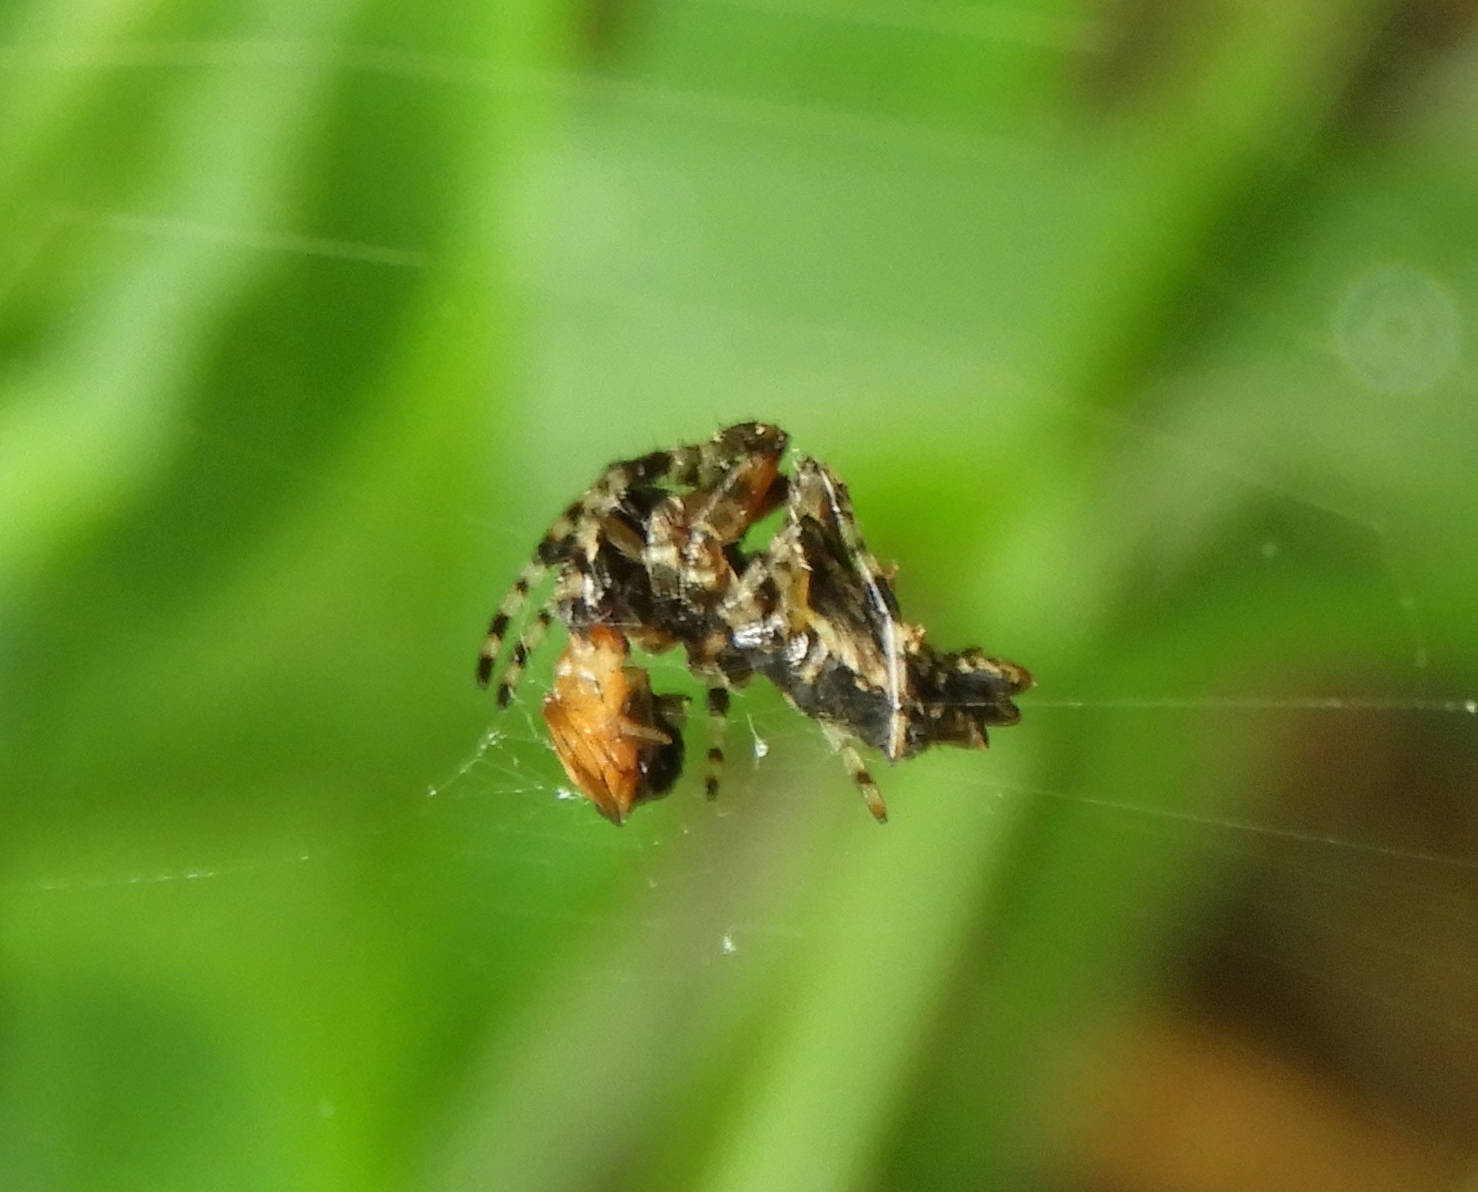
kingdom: Animalia
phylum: Arthropoda
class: Arachnida
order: Araneae
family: Araneidae
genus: Wagneriana
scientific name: Wagneriana
